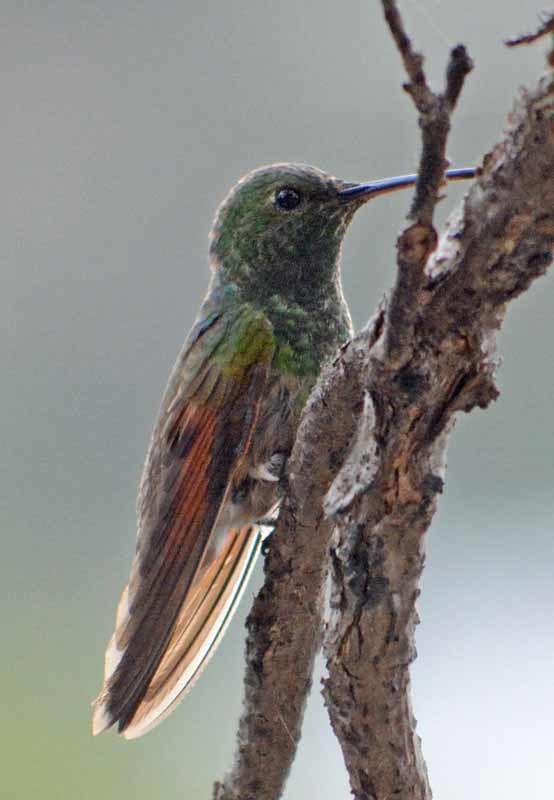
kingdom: Animalia
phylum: Chordata
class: Aves
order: Apodiformes
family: Trochilidae
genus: Saucerottia
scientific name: Saucerottia beryllina
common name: Berylline hummingbird
